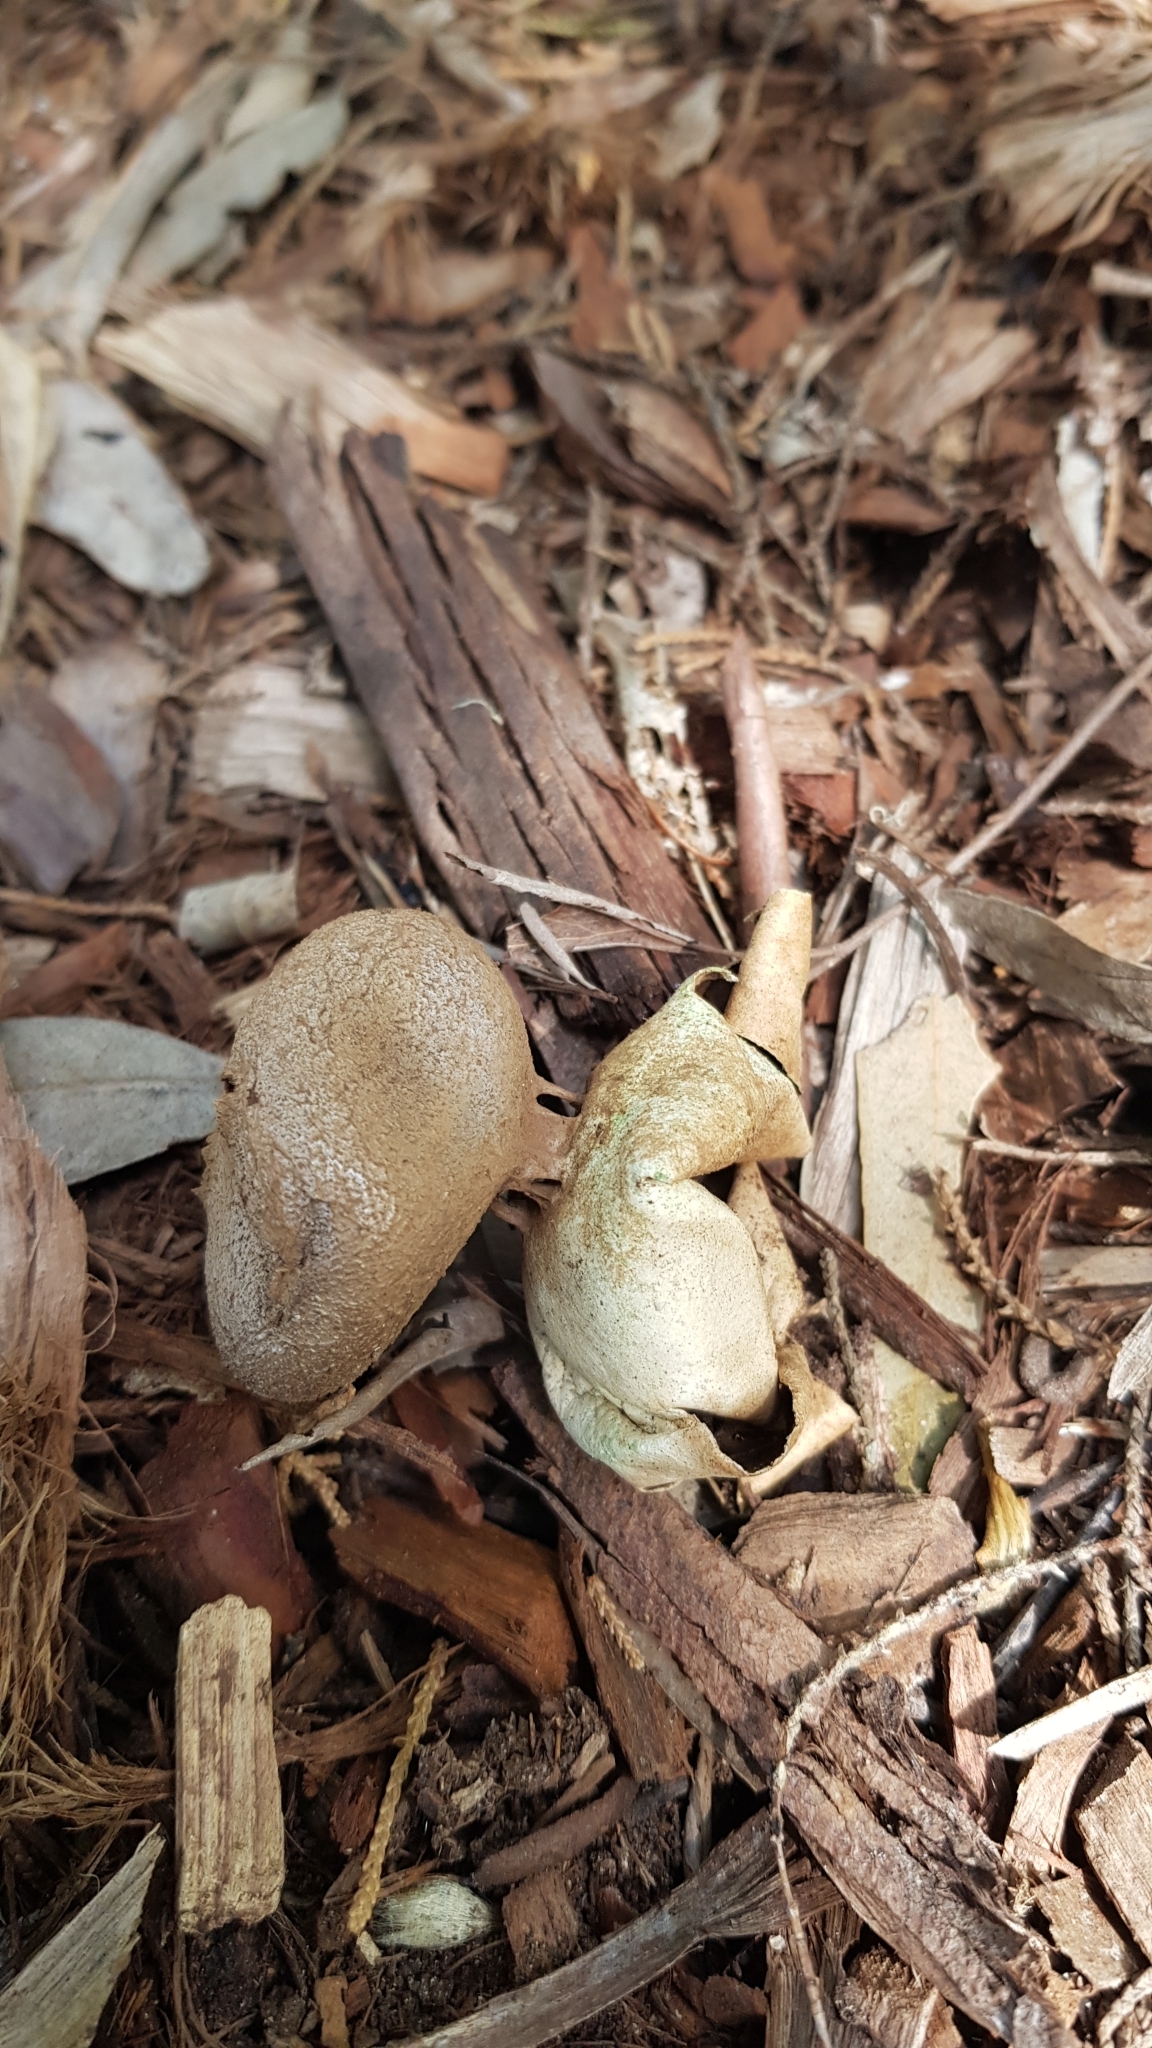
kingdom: Fungi
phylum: Basidiomycota
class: Agaricomycetes
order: Geastrales
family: Geastraceae
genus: Myriostoma
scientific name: Myriostoma australianum
